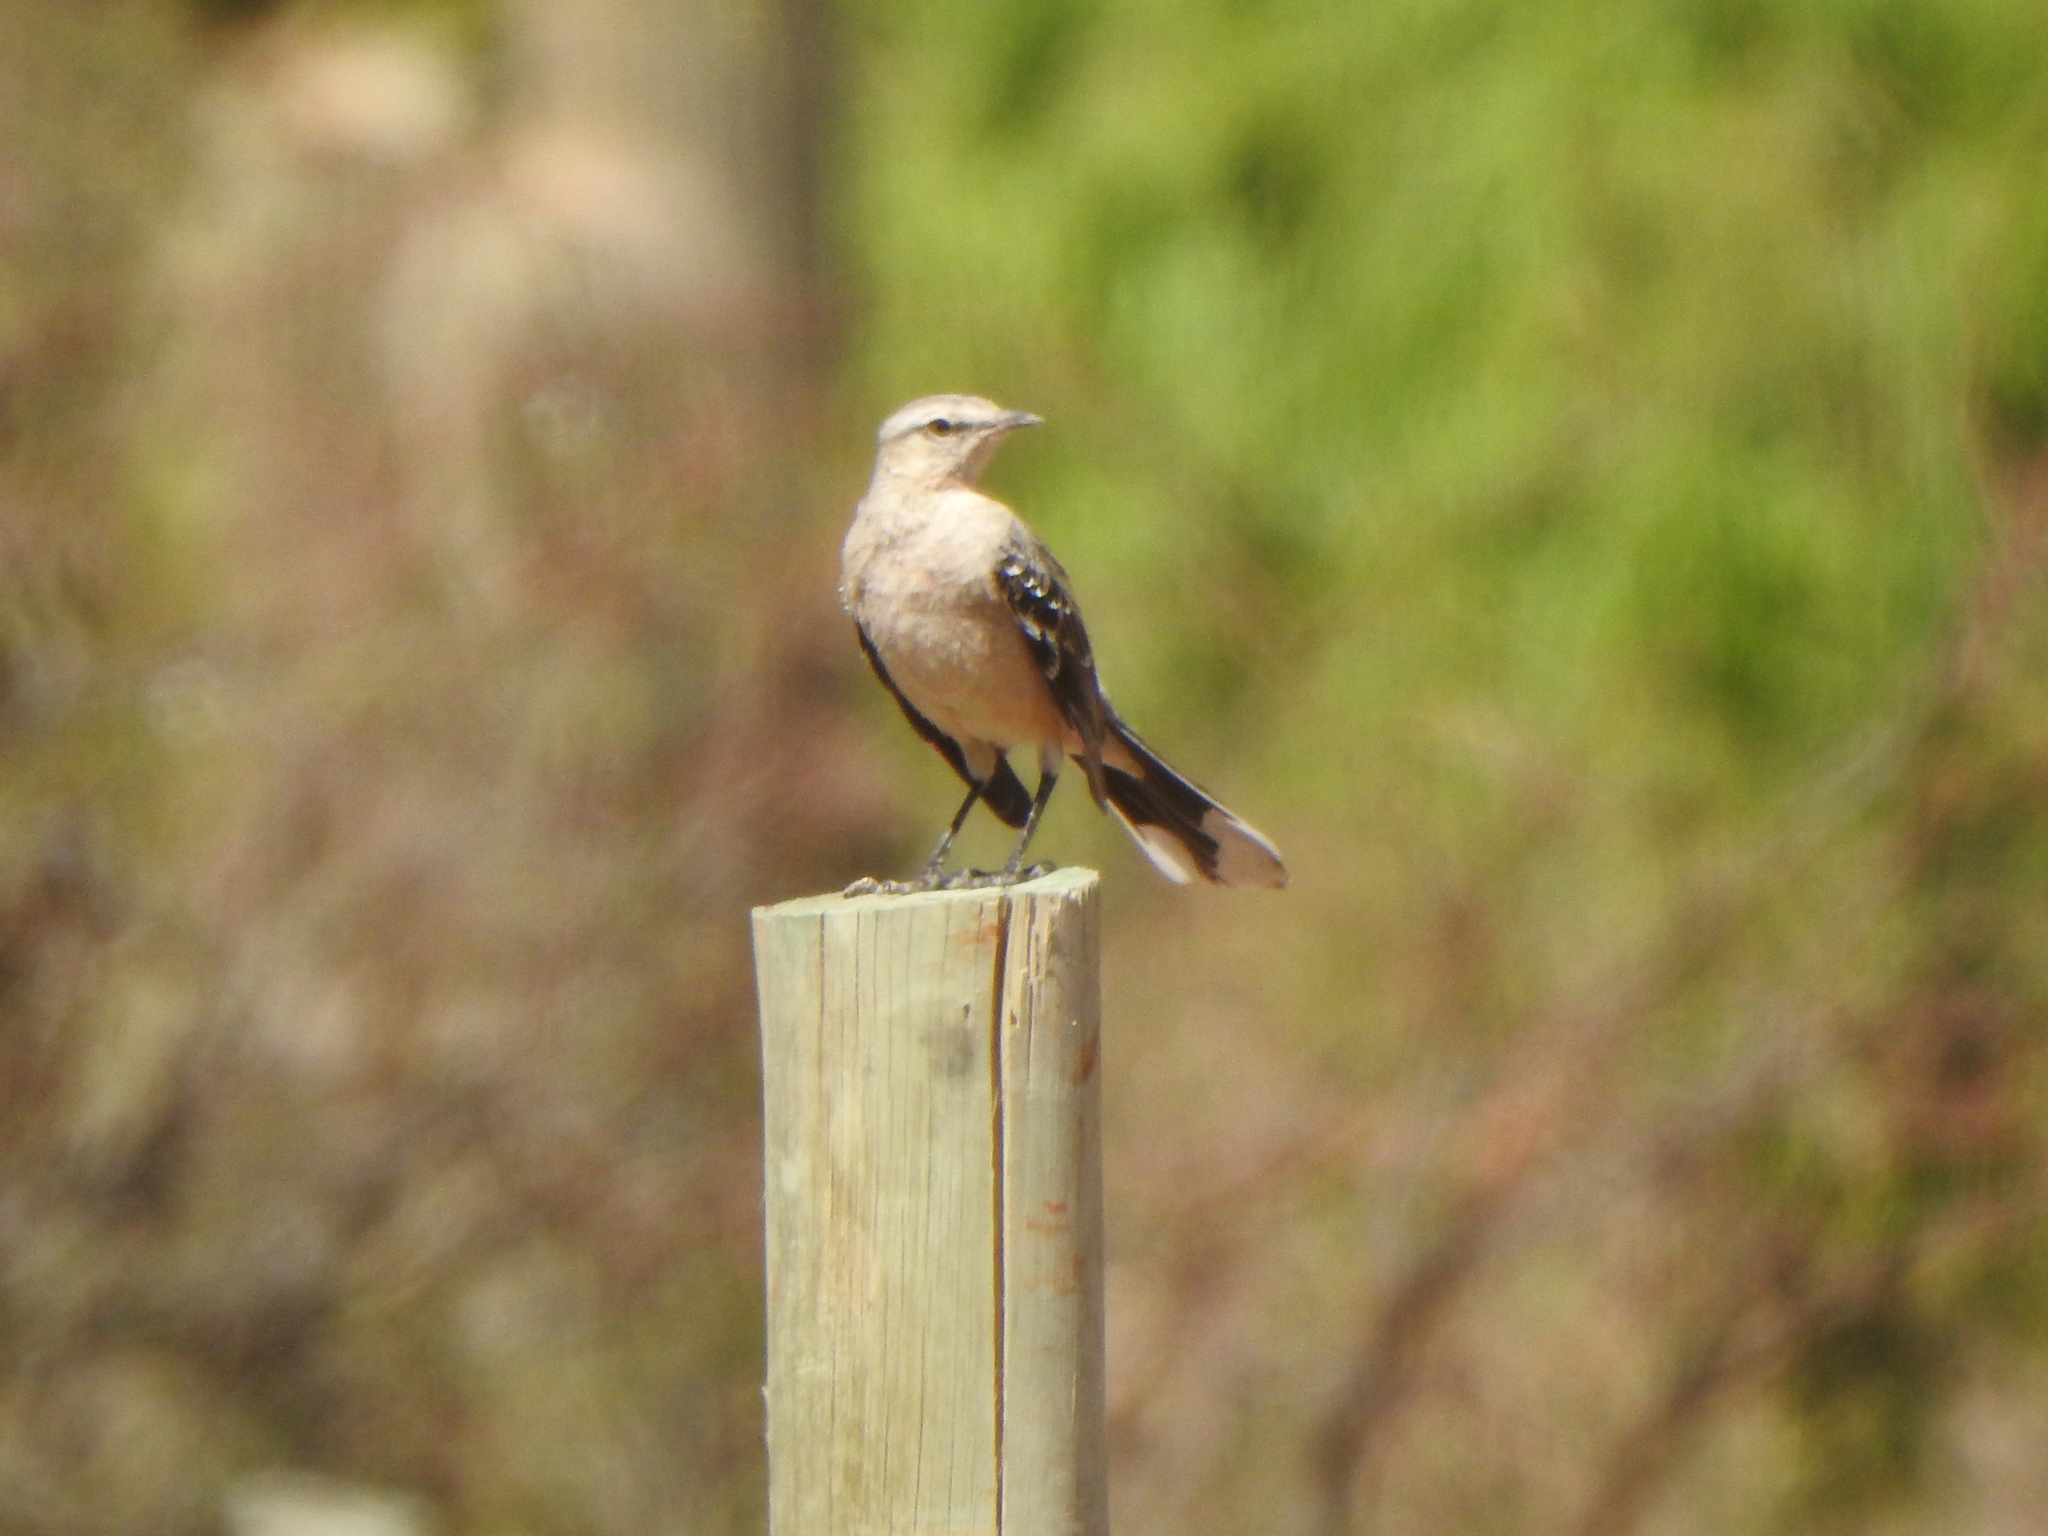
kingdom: Animalia
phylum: Chordata
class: Aves
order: Passeriformes
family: Mimidae
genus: Mimus
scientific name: Mimus patagonicus
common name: Patagonian mockingbird
